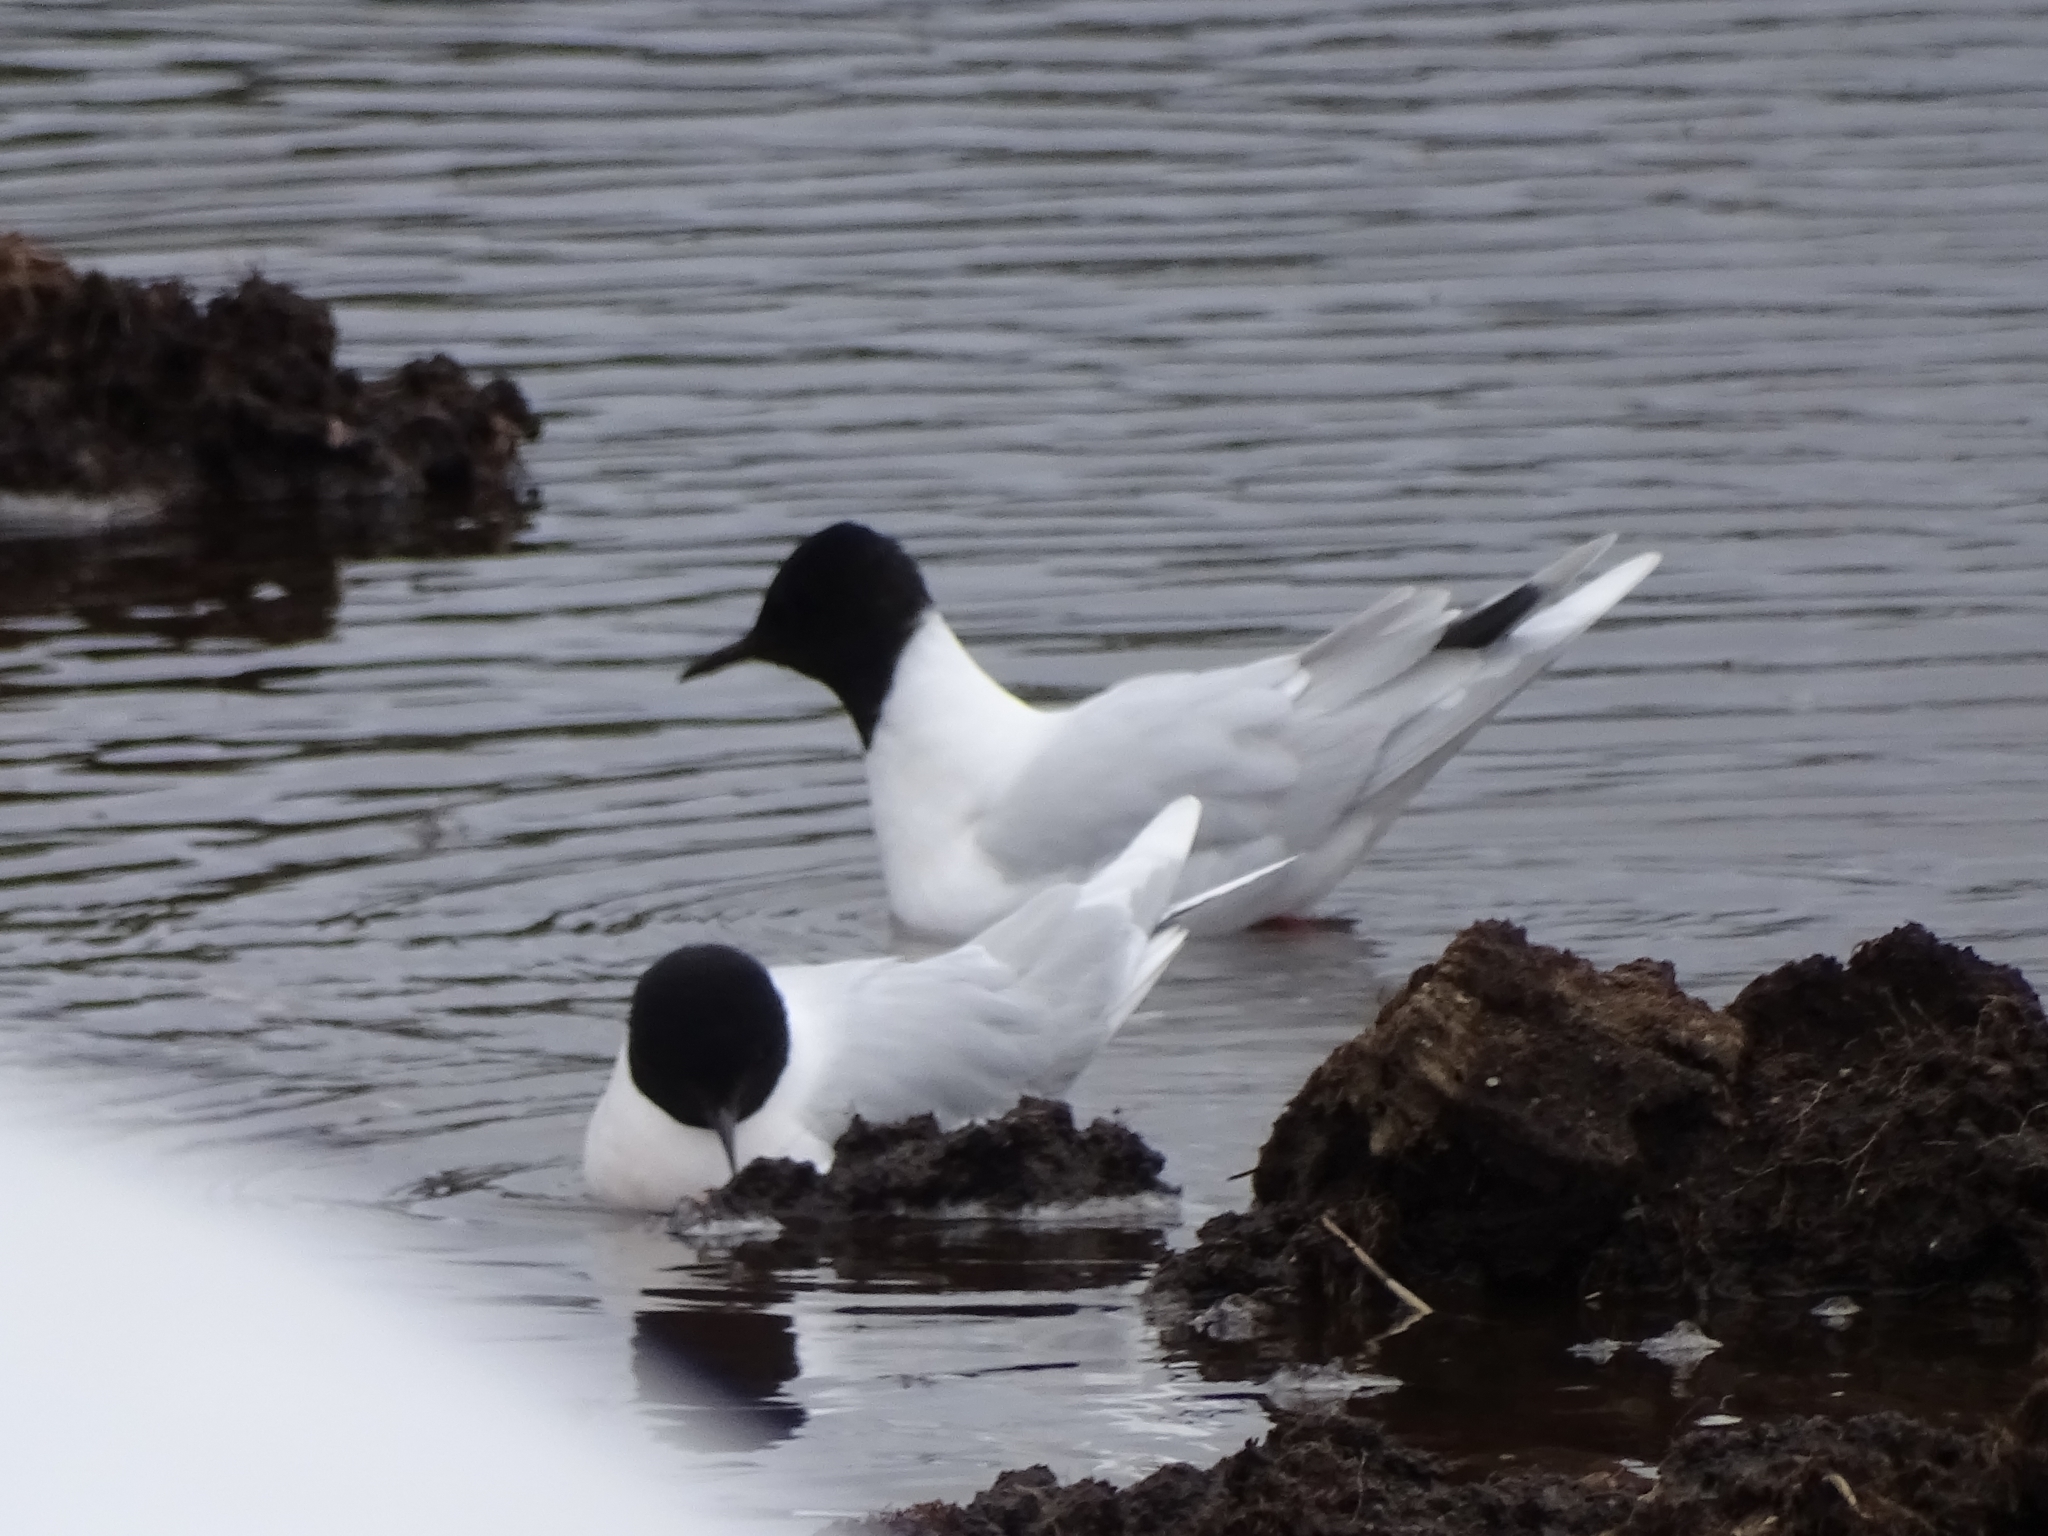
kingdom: Animalia
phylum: Chordata
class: Aves
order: Charadriiformes
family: Laridae
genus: Hydrocoloeus
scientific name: Hydrocoloeus minutus
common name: Little gull
